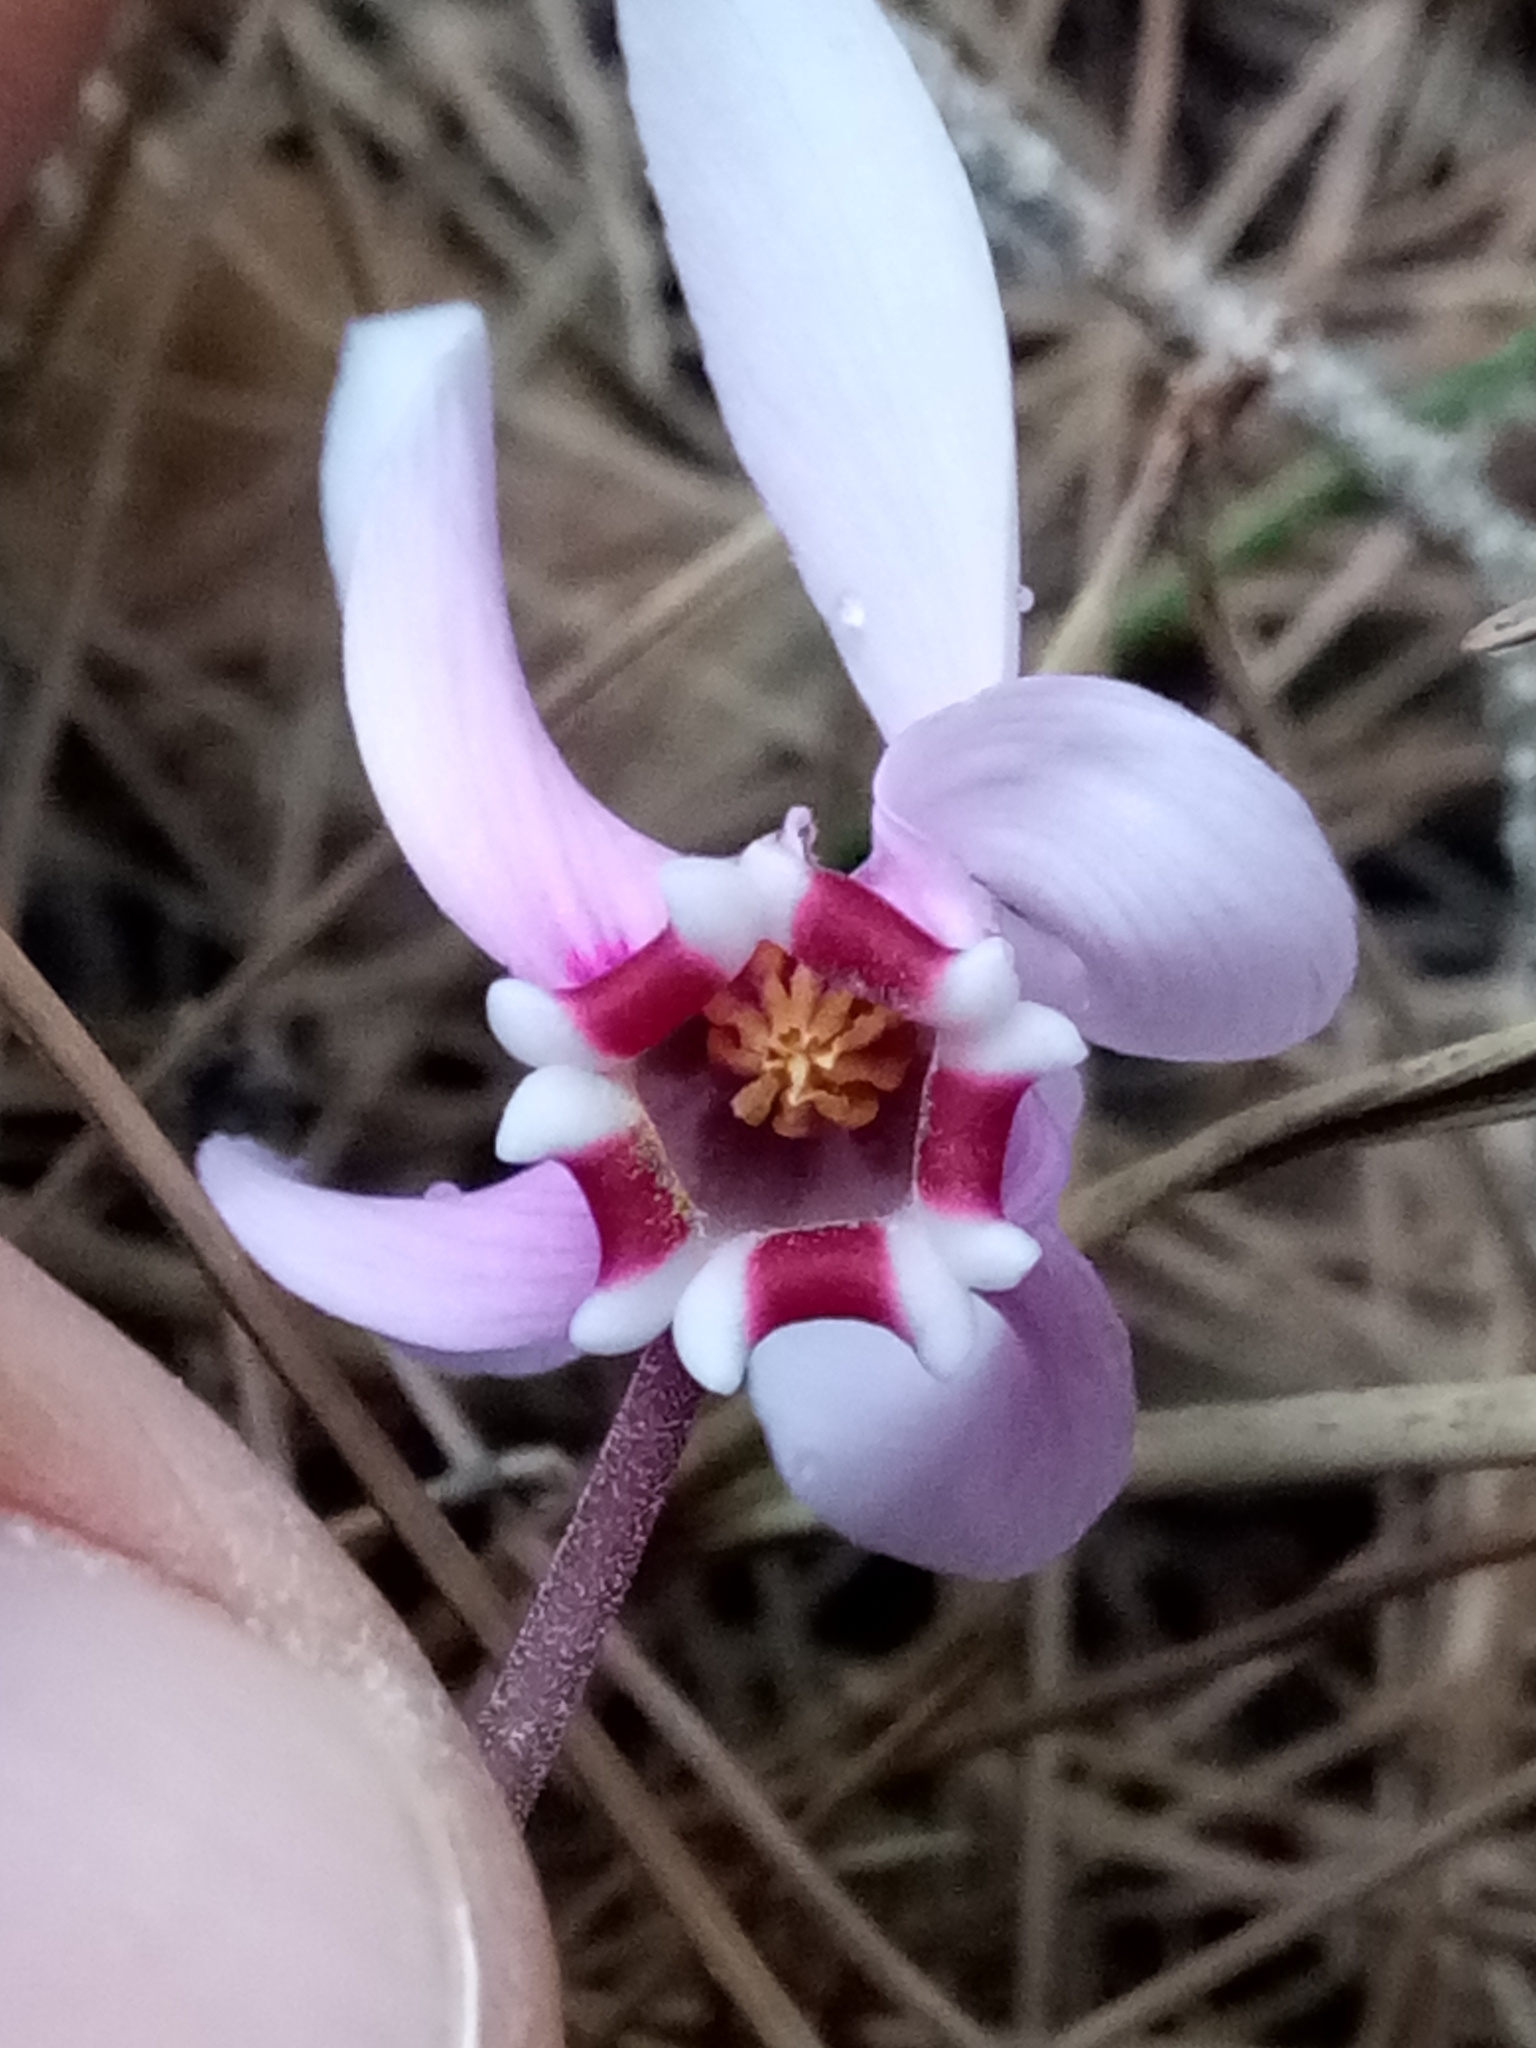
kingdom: Plantae
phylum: Tracheophyta
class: Magnoliopsida
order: Ericales
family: Primulaceae
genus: Cyclamen
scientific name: Cyclamen africanum
